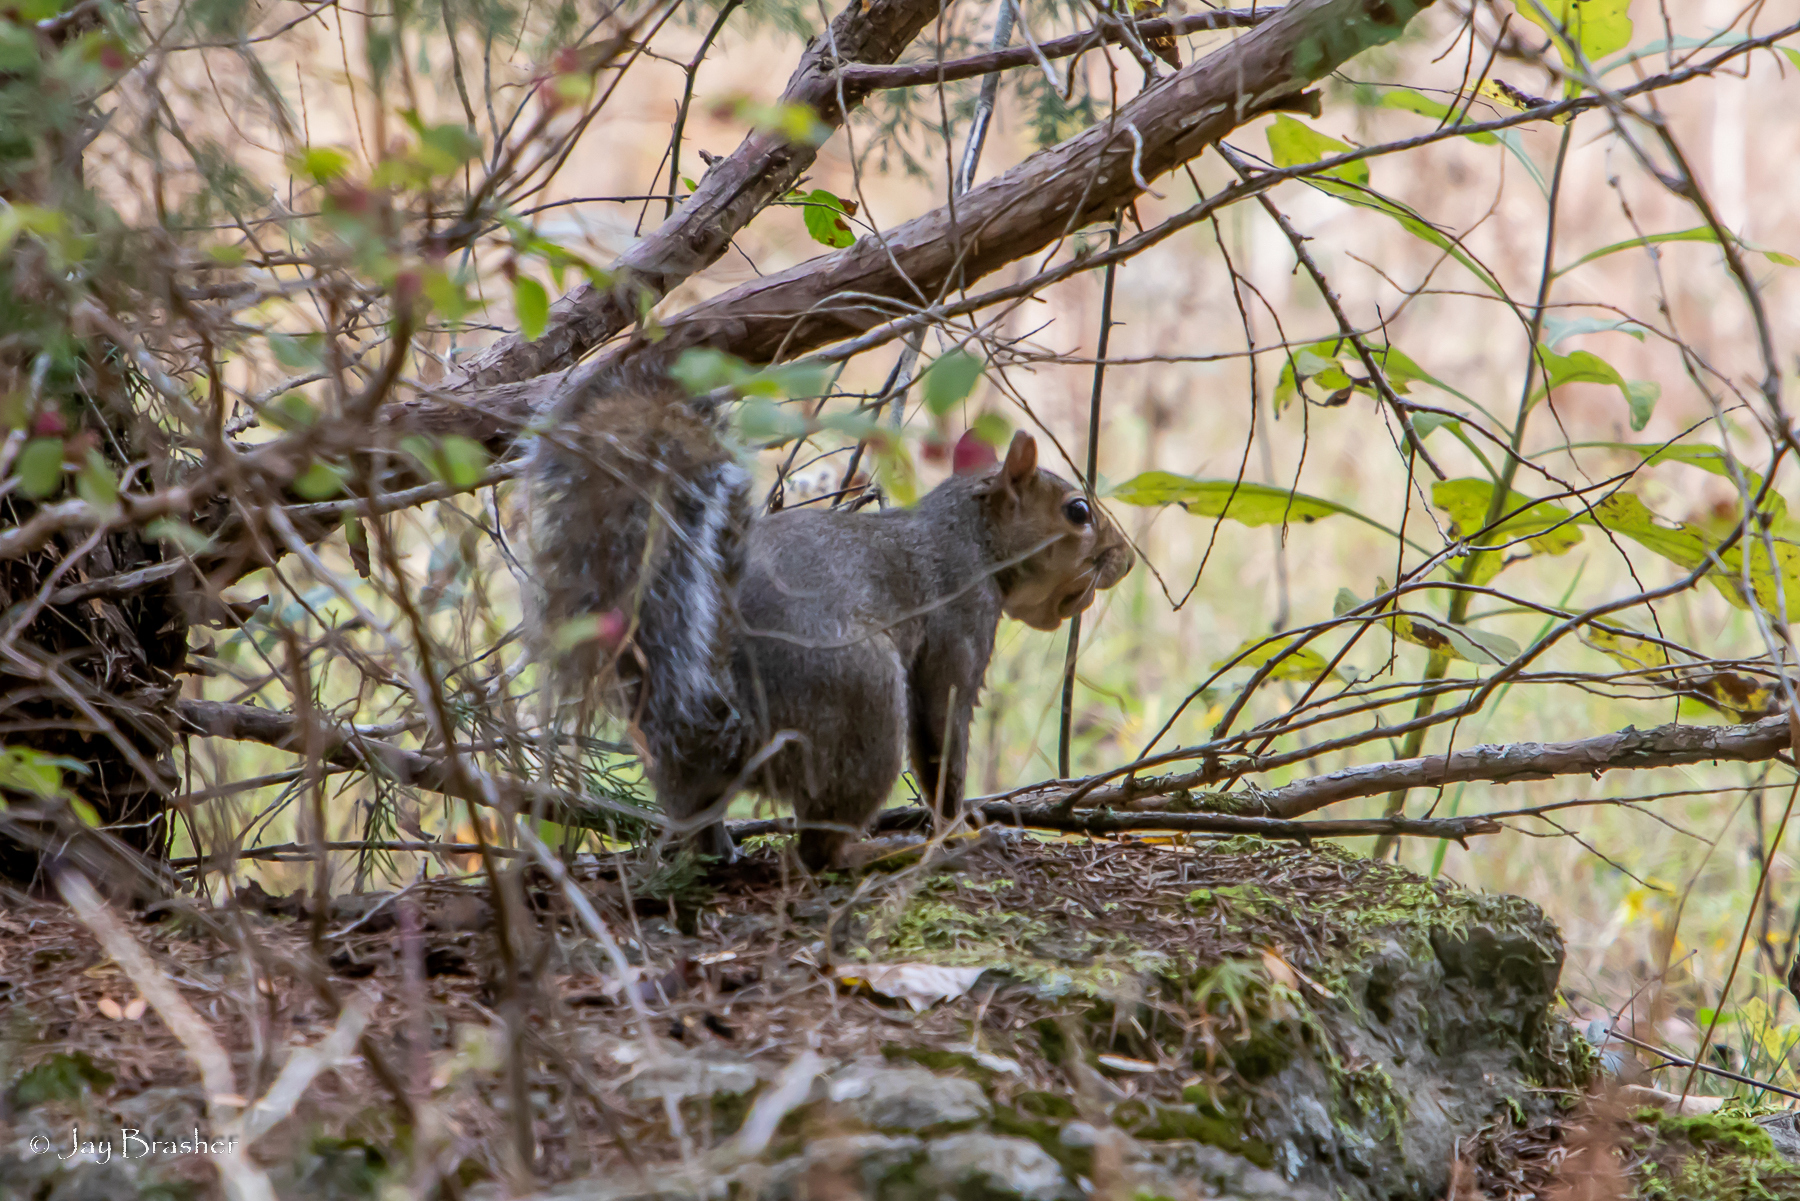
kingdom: Animalia
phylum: Chordata
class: Mammalia
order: Rodentia
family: Sciuridae
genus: Sciurus
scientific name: Sciurus carolinensis
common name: Eastern gray squirrel
